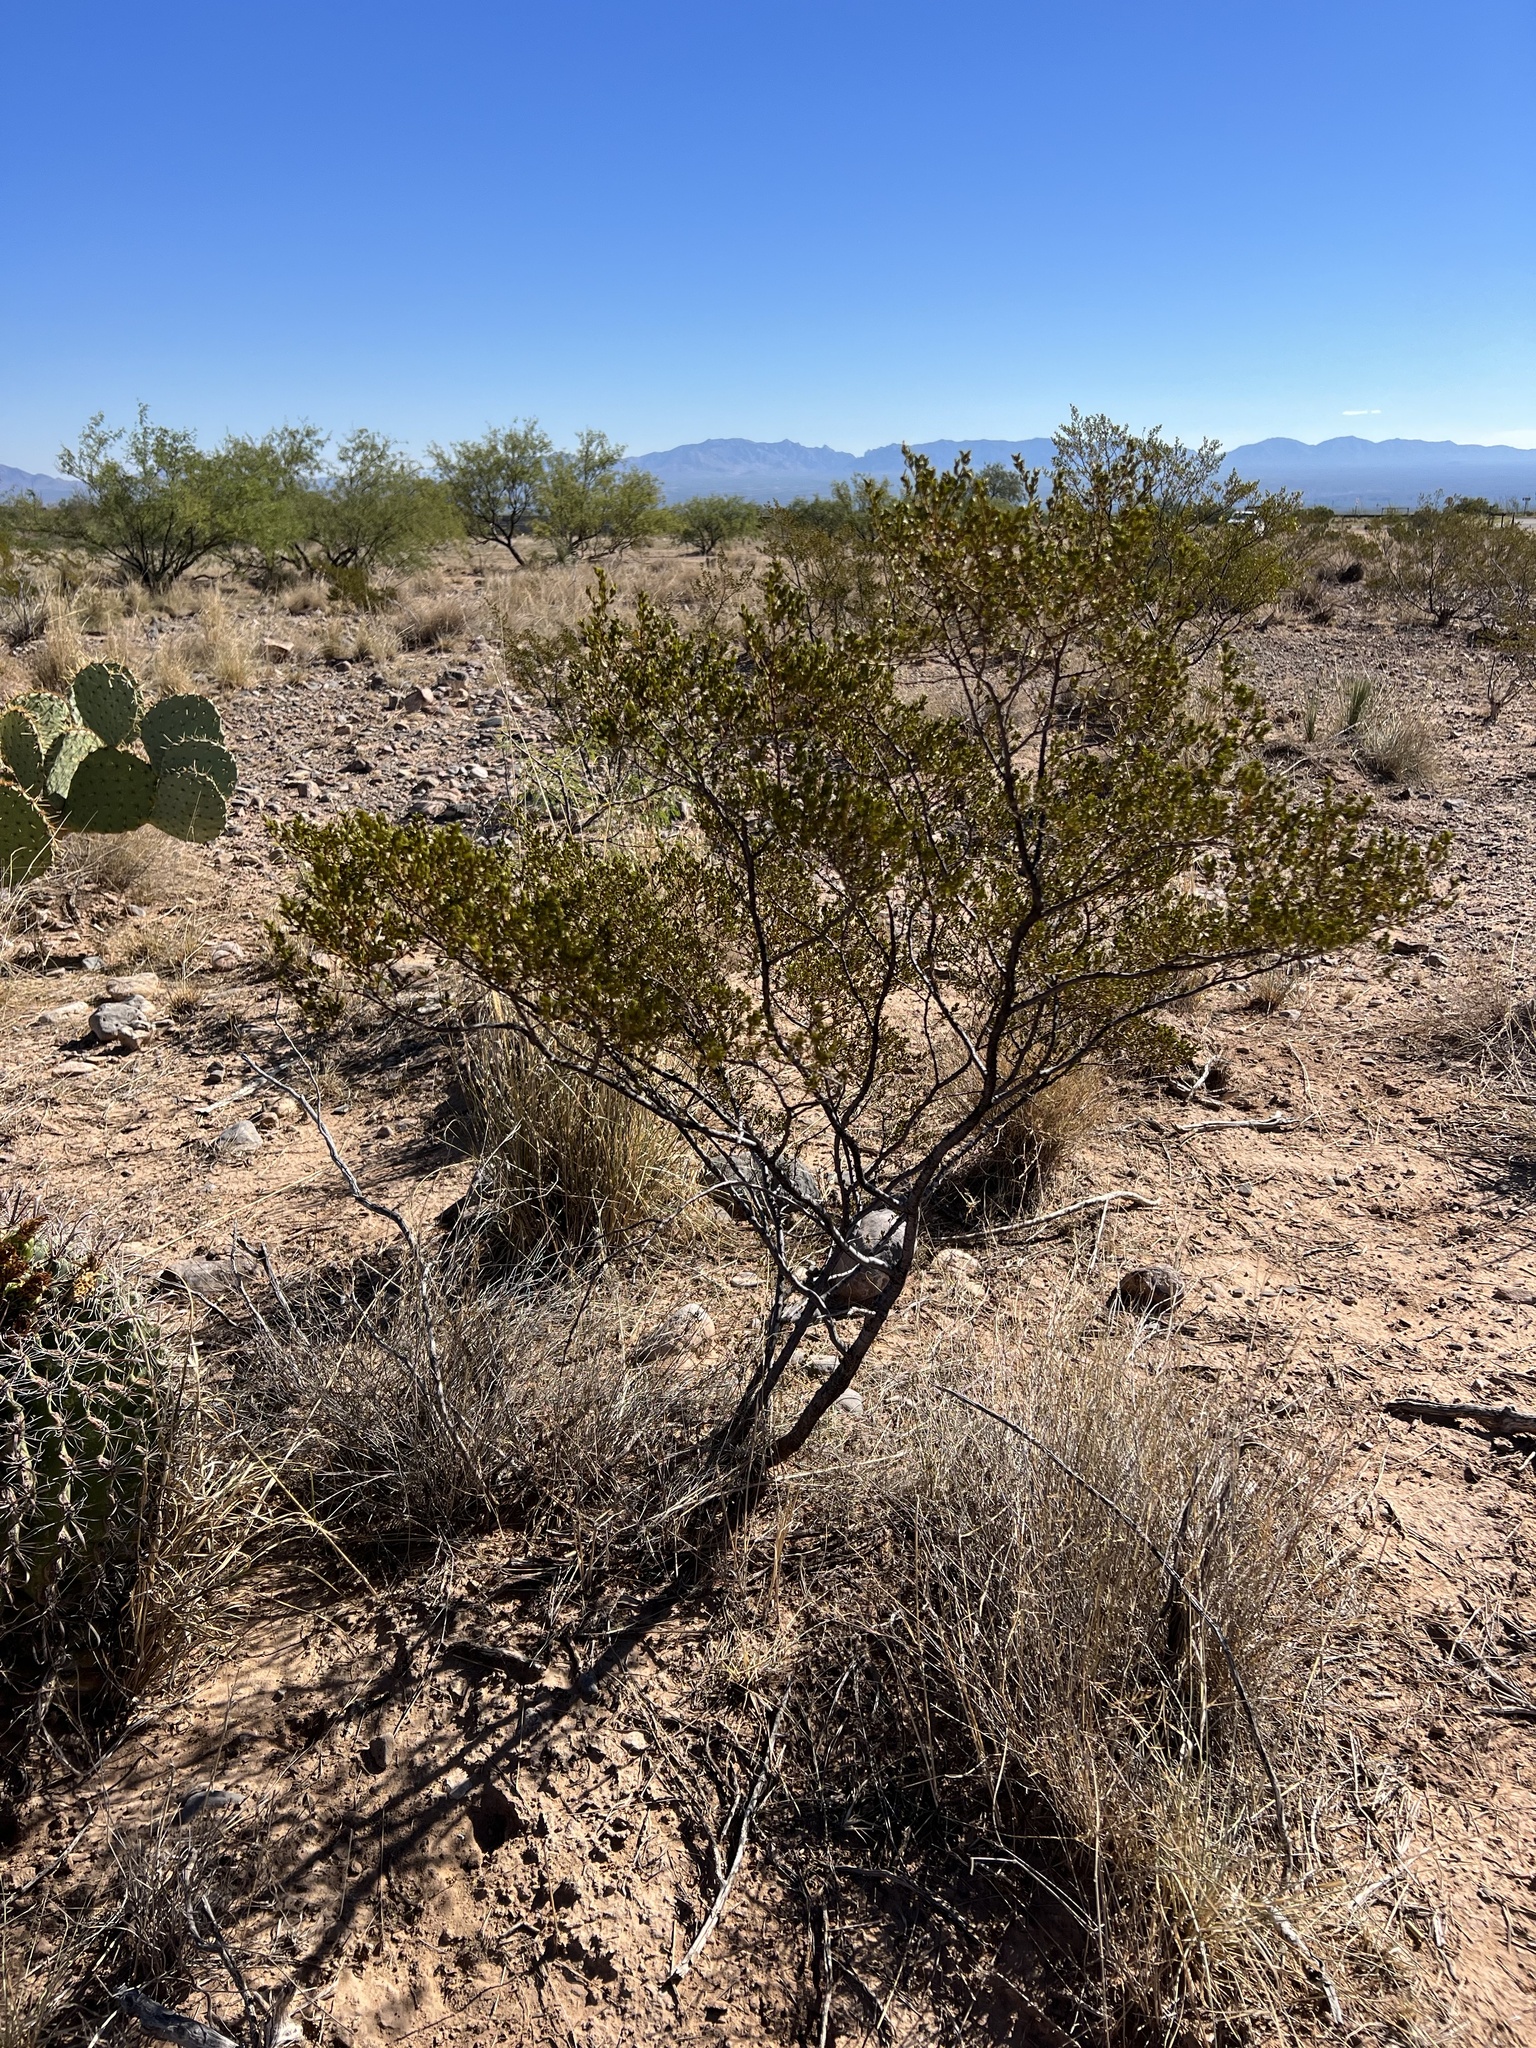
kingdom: Plantae
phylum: Tracheophyta
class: Magnoliopsida
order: Zygophyllales
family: Zygophyllaceae
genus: Larrea
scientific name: Larrea tridentata
